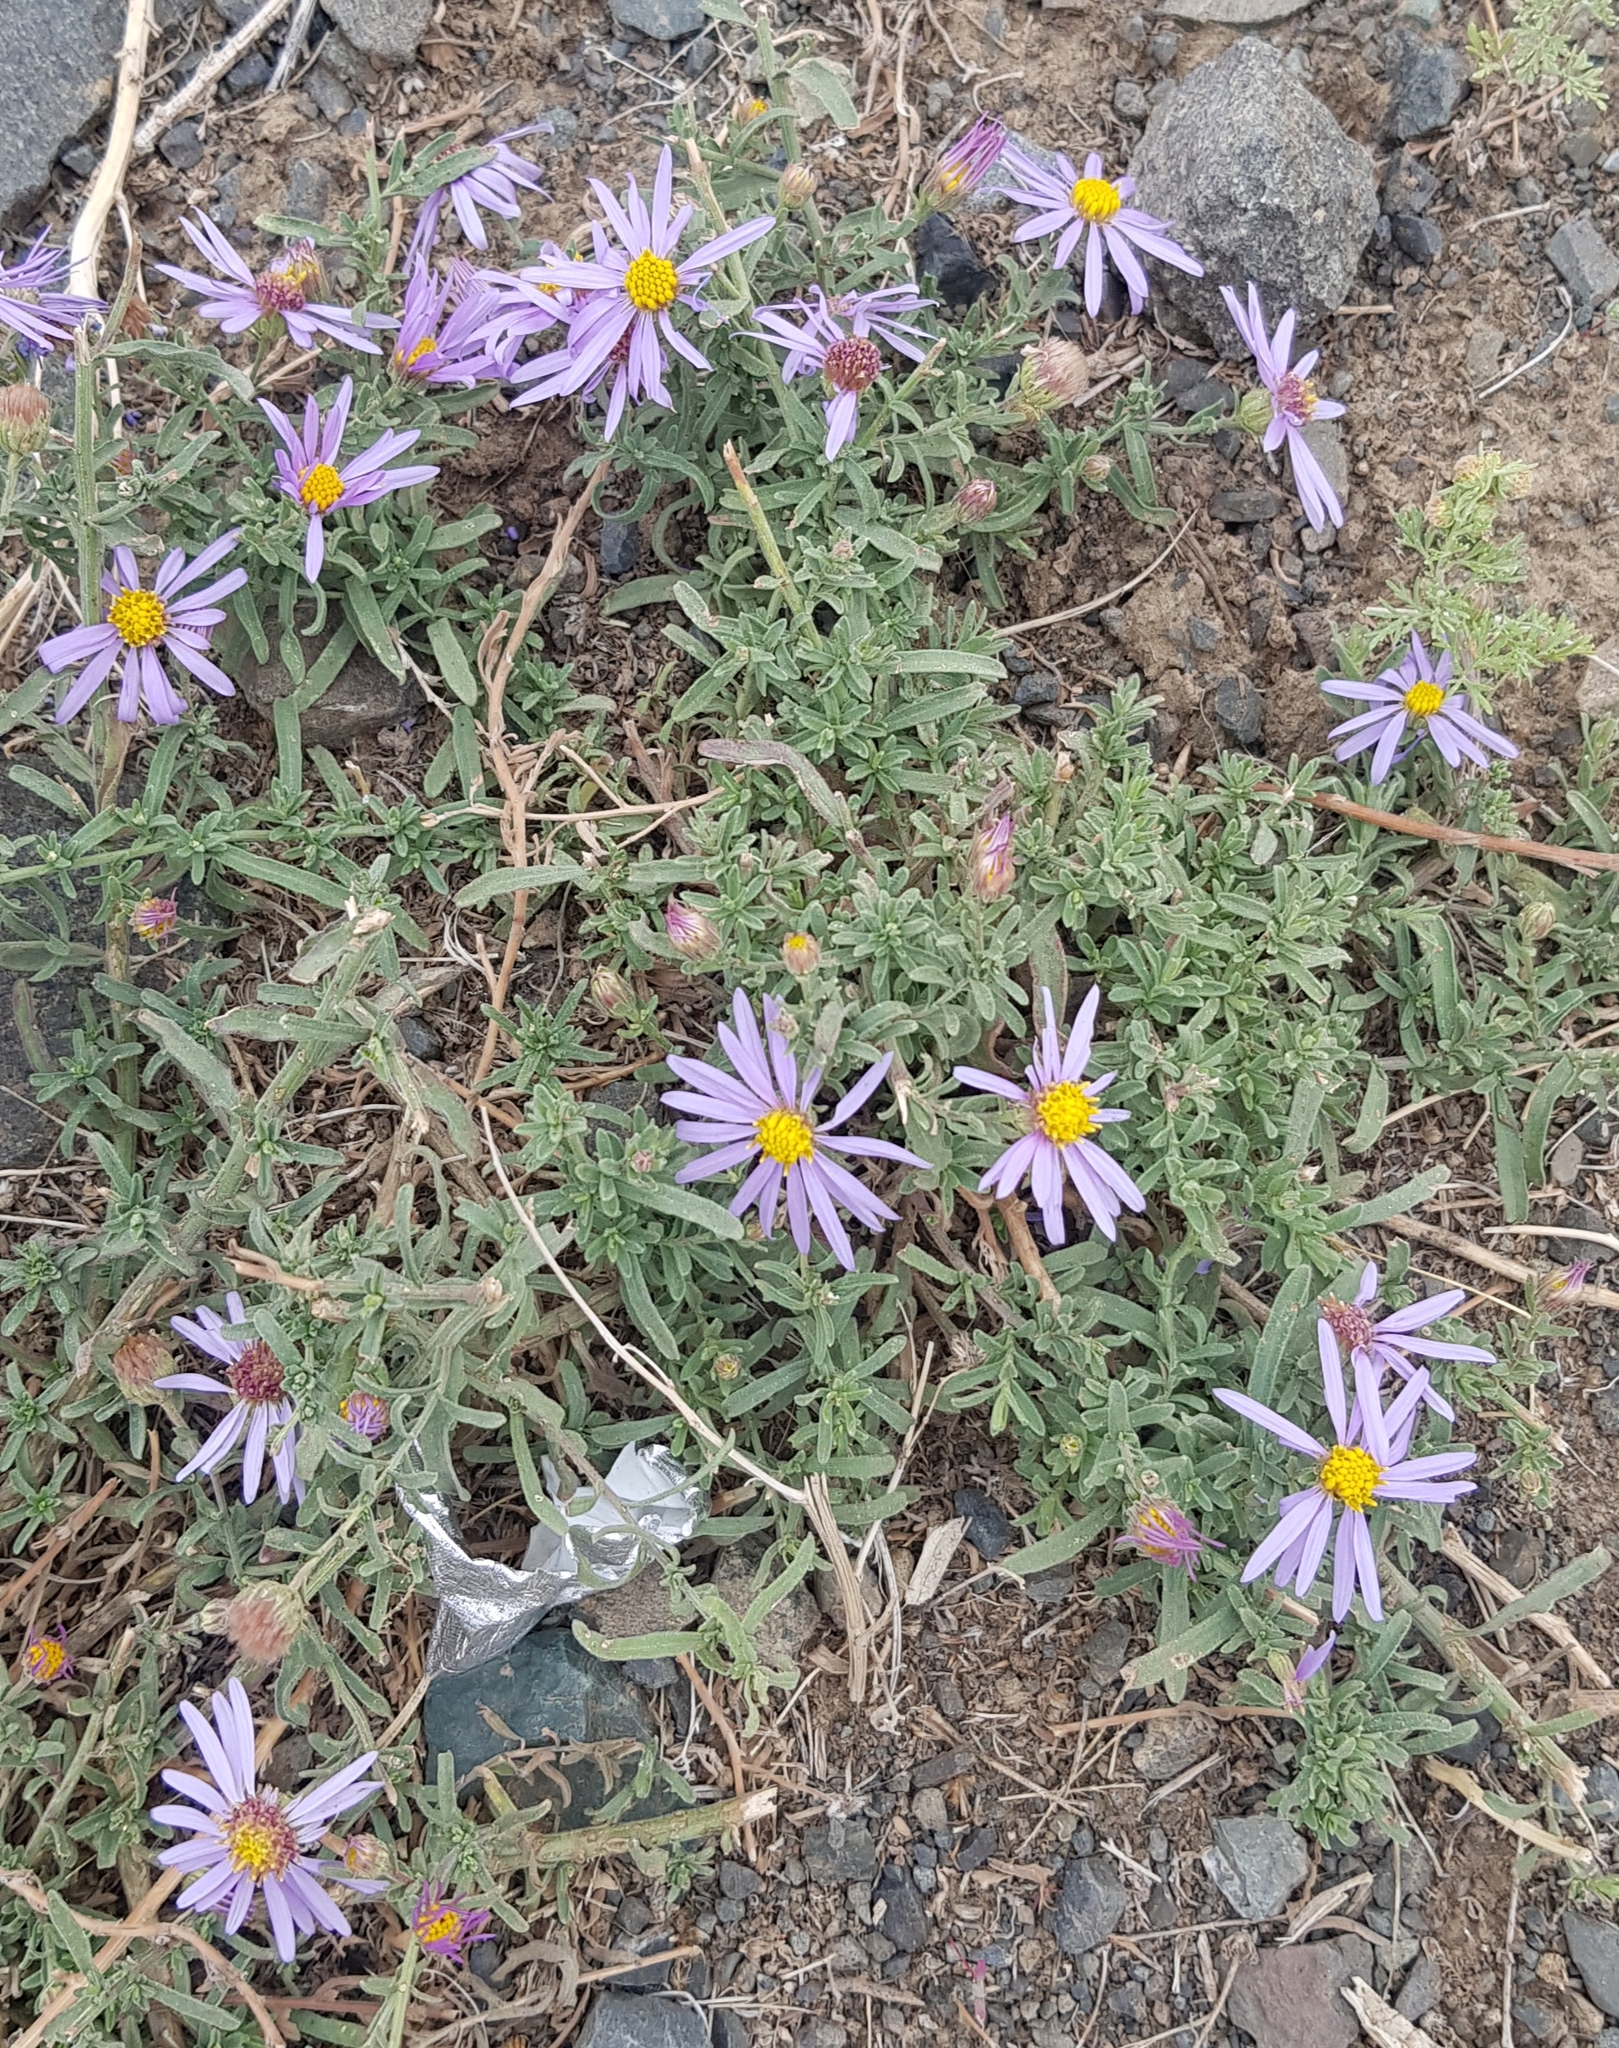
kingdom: Plantae
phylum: Tracheophyta
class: Magnoliopsida
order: Asterales
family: Asteraceae
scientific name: Asteraceae
